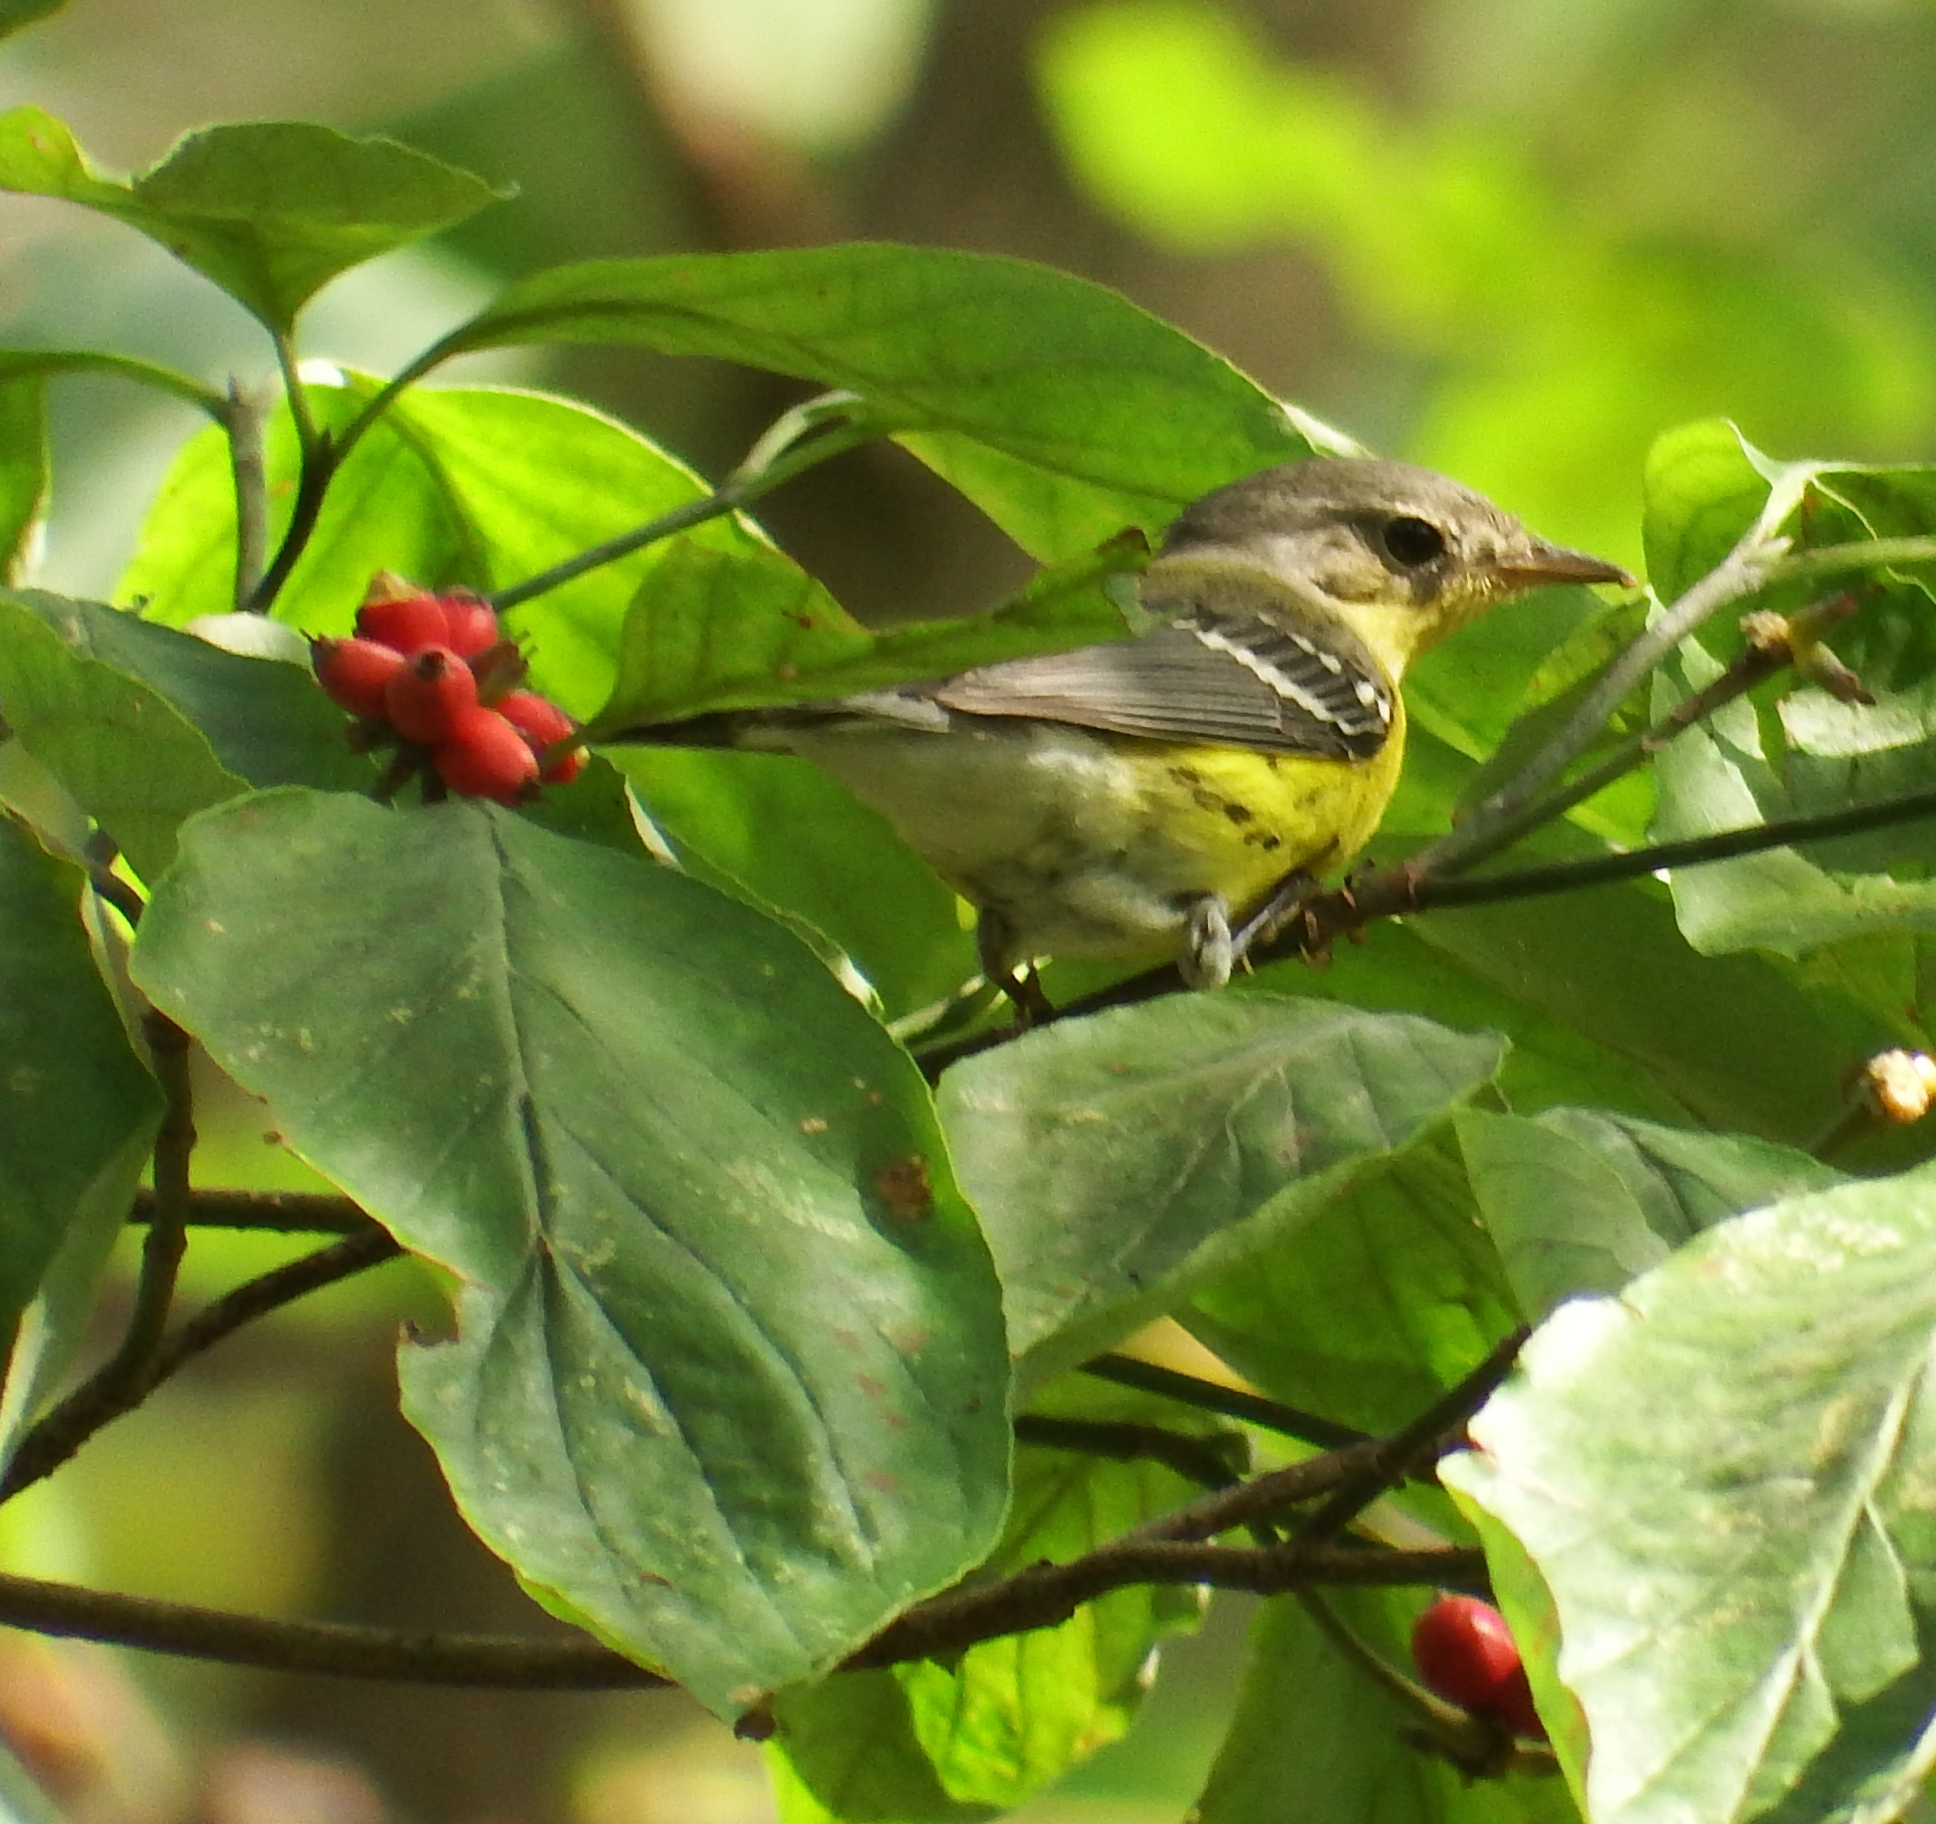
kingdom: Animalia
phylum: Chordata
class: Aves
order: Passeriformes
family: Parulidae
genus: Setophaga
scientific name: Setophaga magnolia
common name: Magnolia warbler
